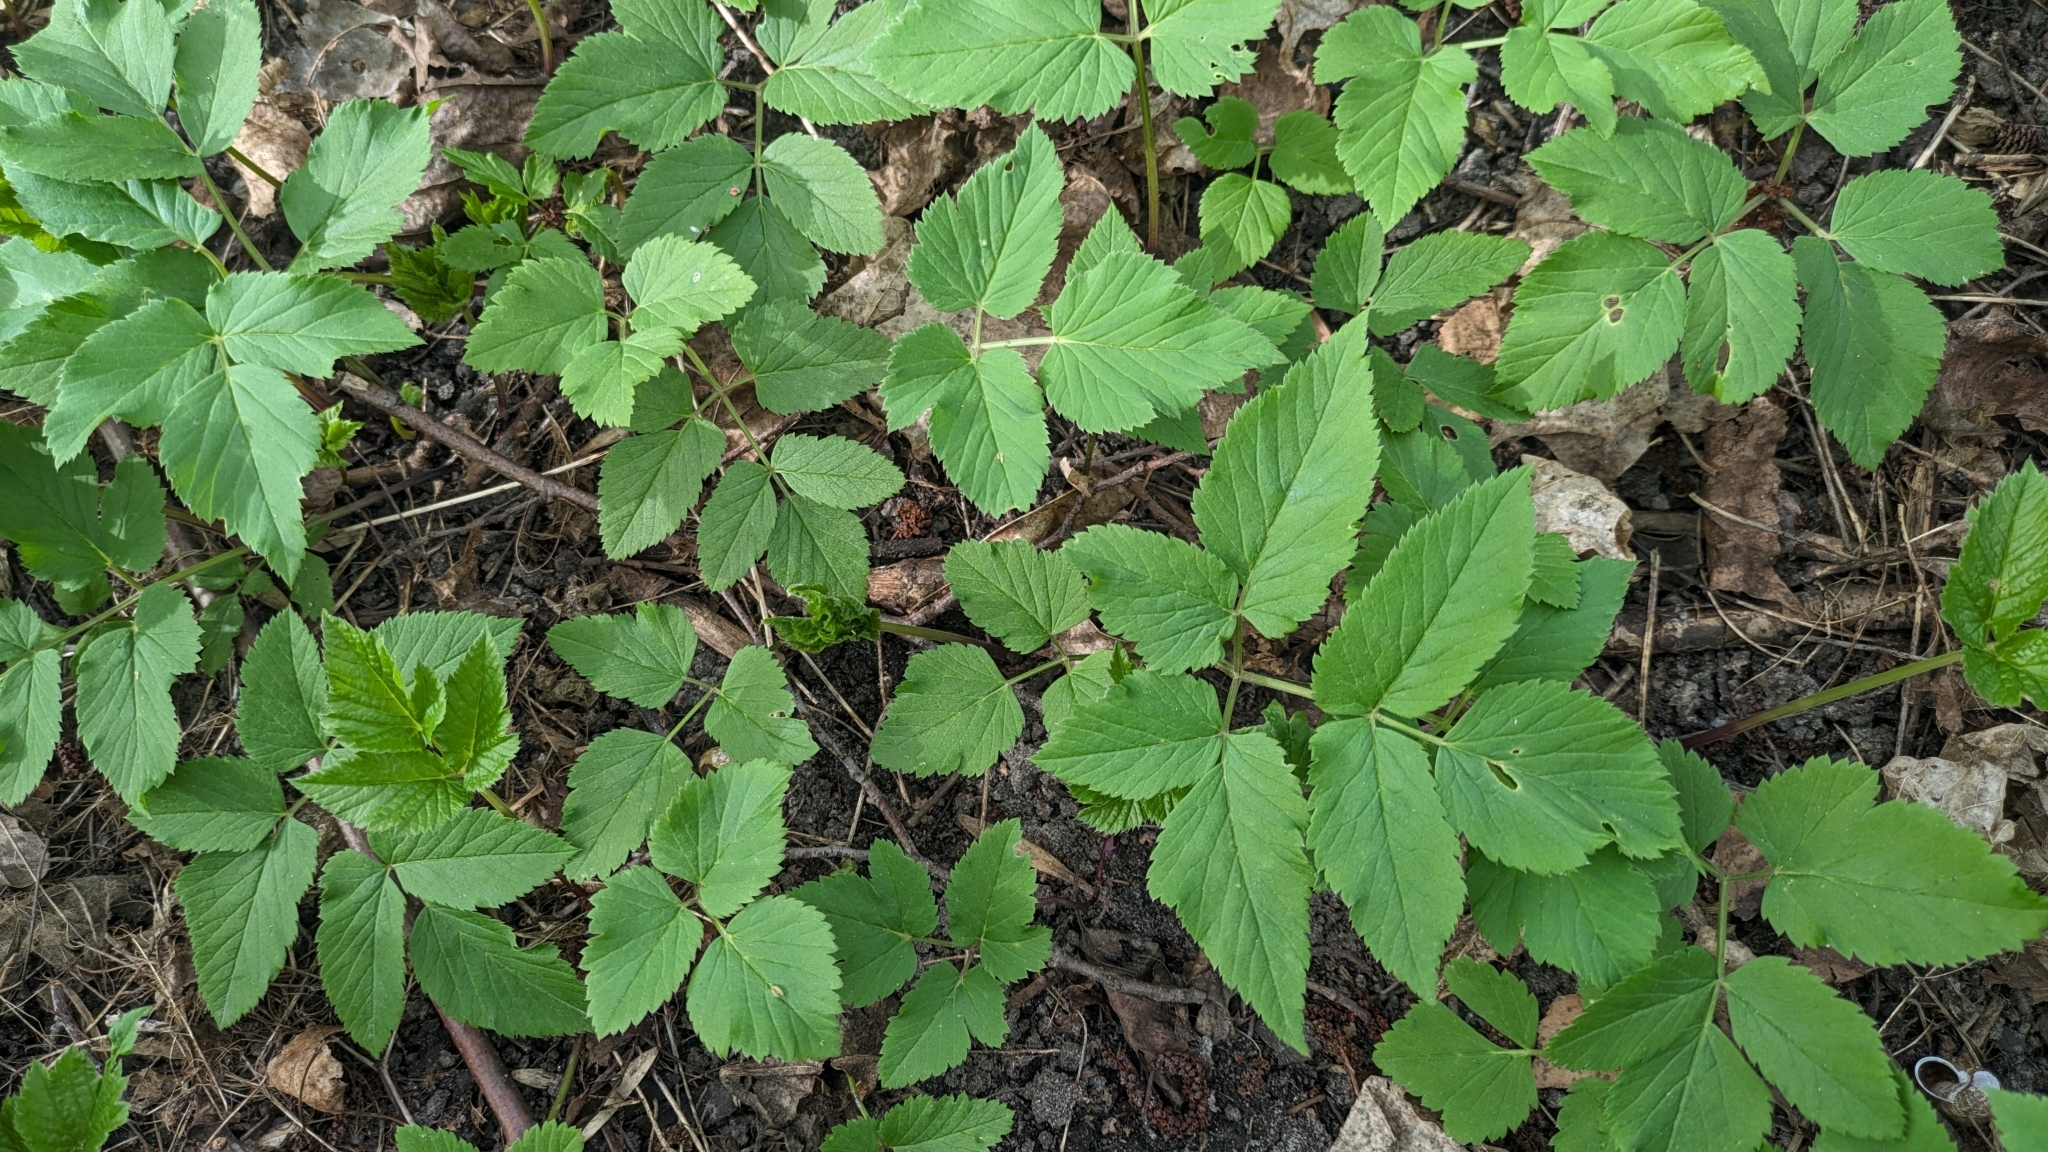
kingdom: Plantae
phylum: Tracheophyta
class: Magnoliopsida
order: Apiales
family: Apiaceae
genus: Aegopodium
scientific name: Aegopodium podagraria
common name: Ground-elder
